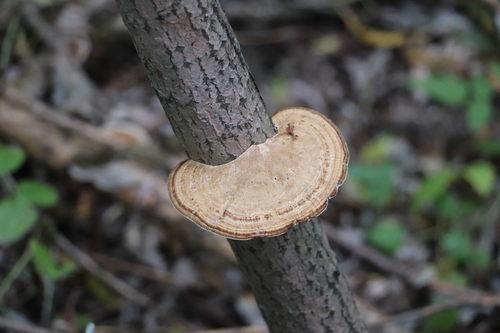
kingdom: Fungi
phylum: Basidiomycota
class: Agaricomycetes
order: Polyporales
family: Polyporaceae
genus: Daedaleopsis
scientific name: Daedaleopsis confragosa
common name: Blushing bracket
